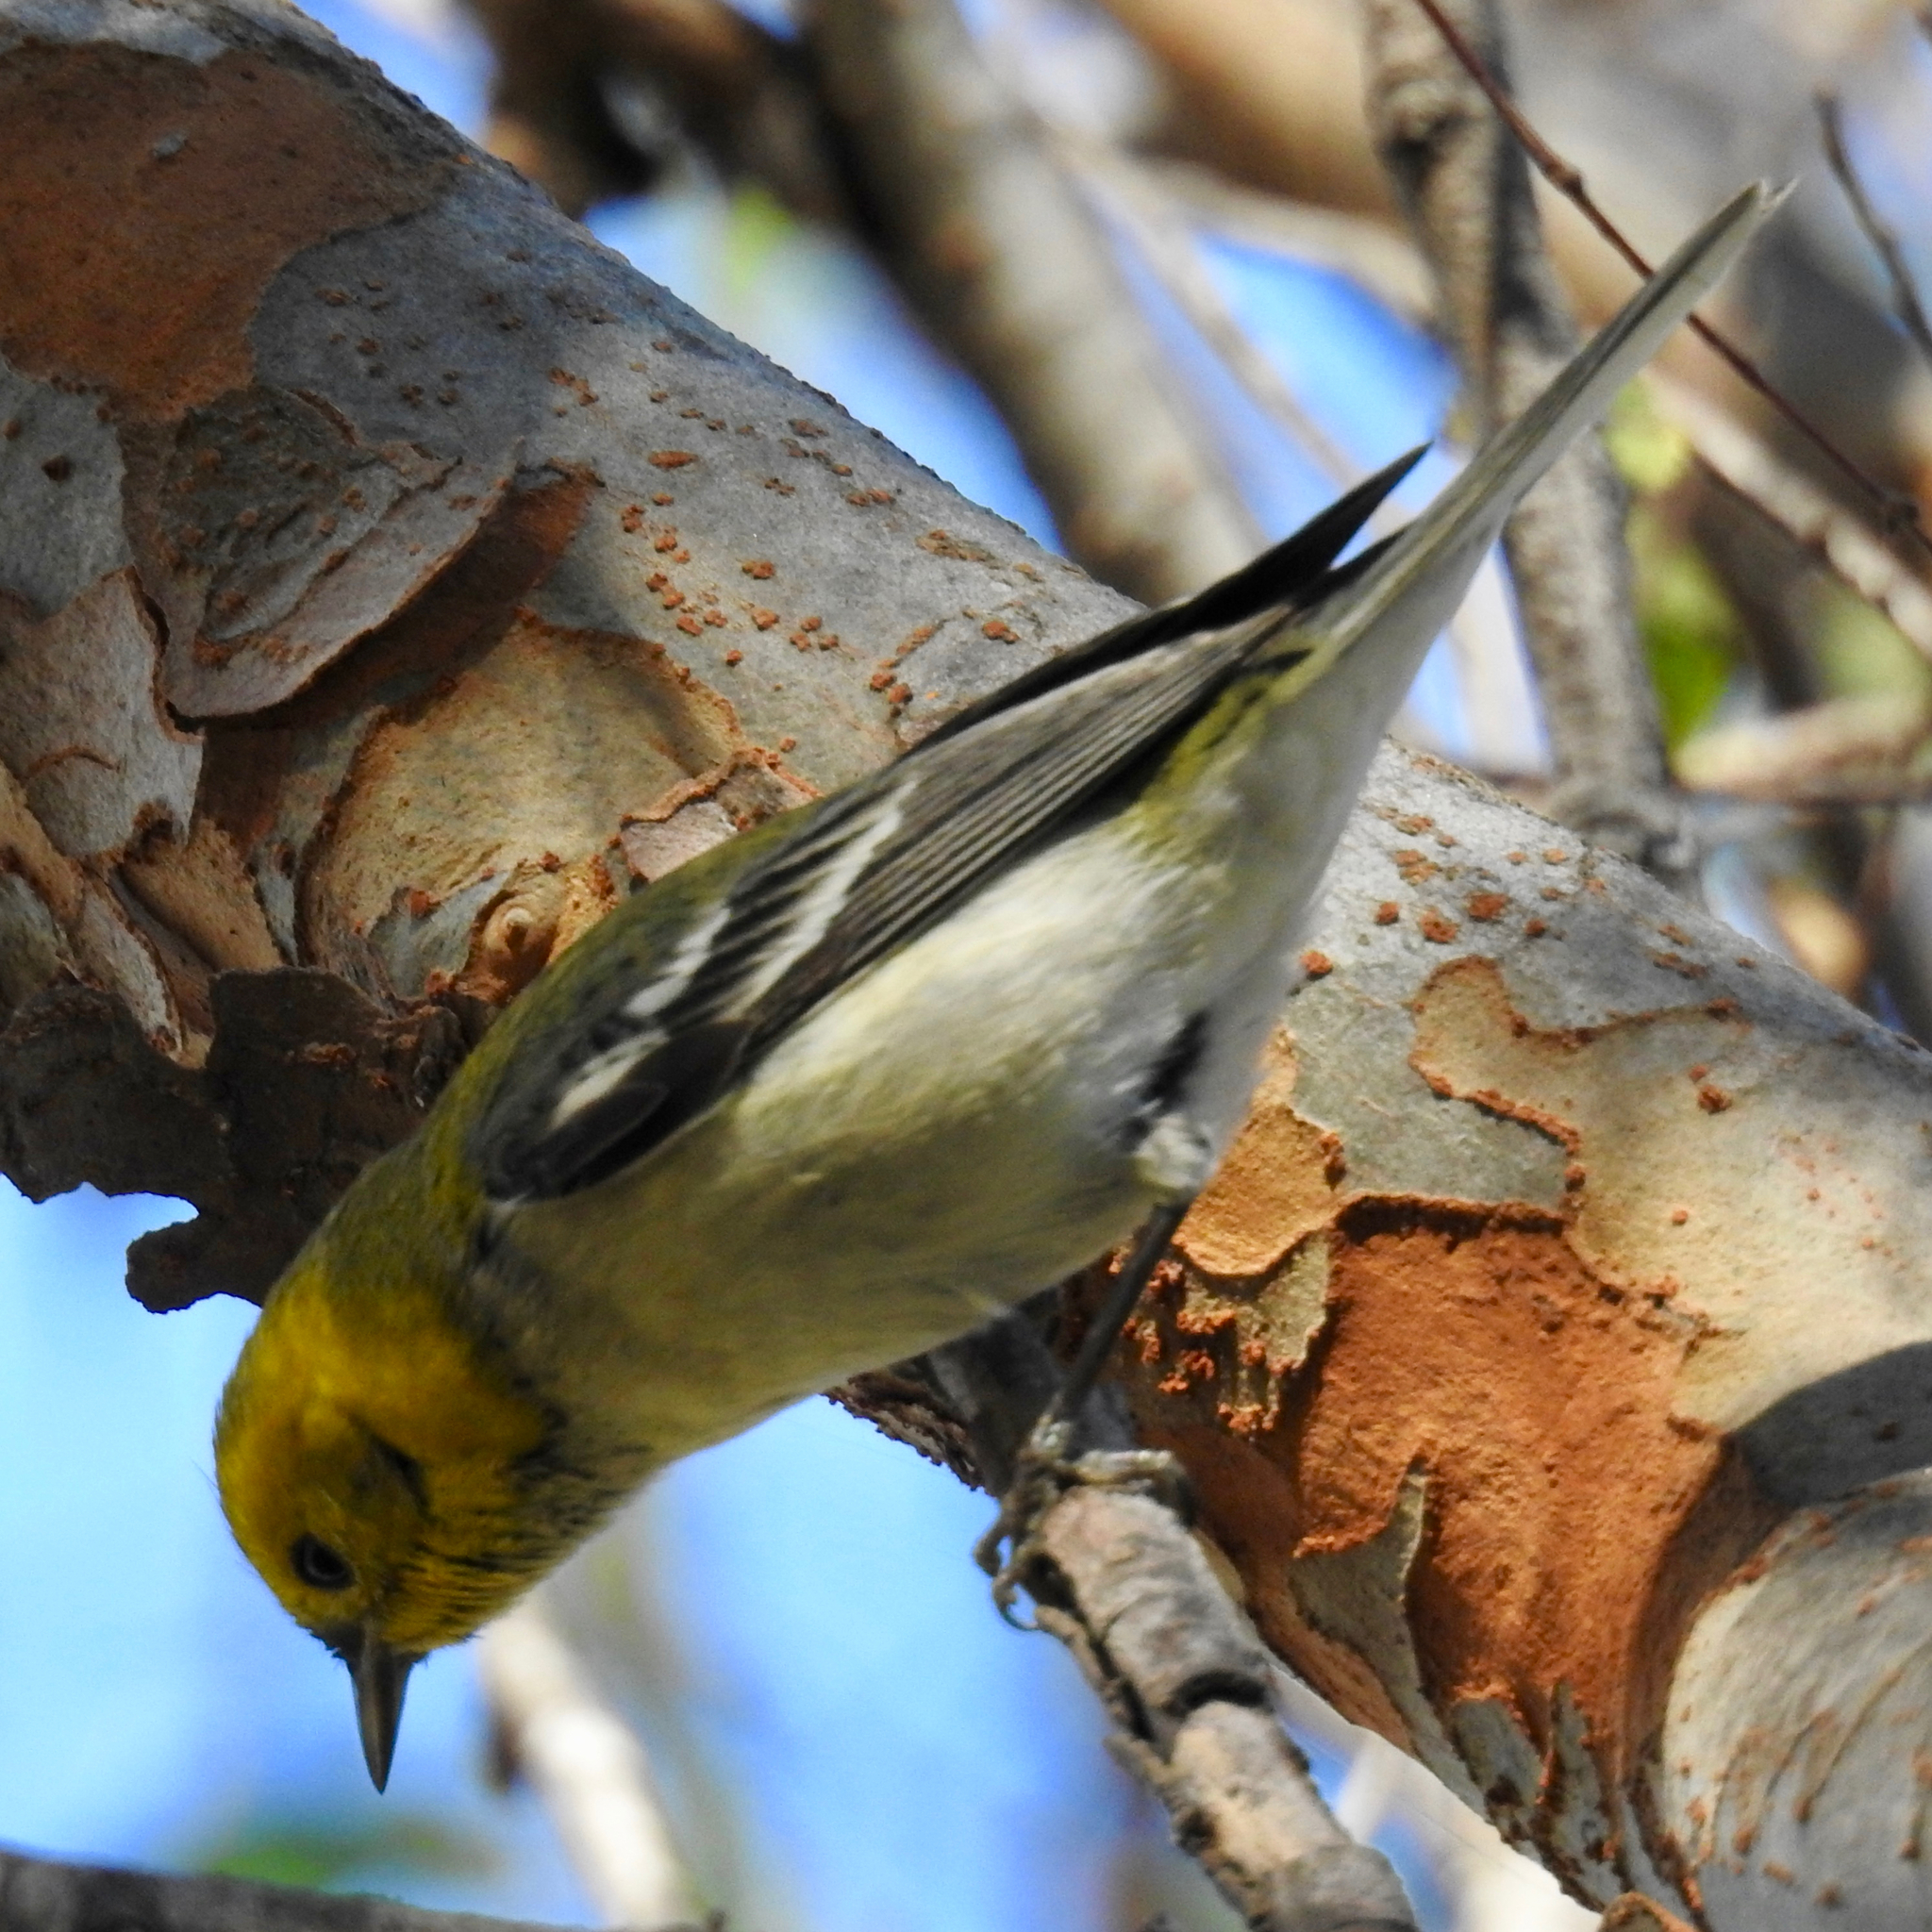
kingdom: Animalia
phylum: Chordata
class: Aves
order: Passeriformes
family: Parulidae
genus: Setophaga
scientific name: Setophaga occidentalis
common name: Hermit warbler
